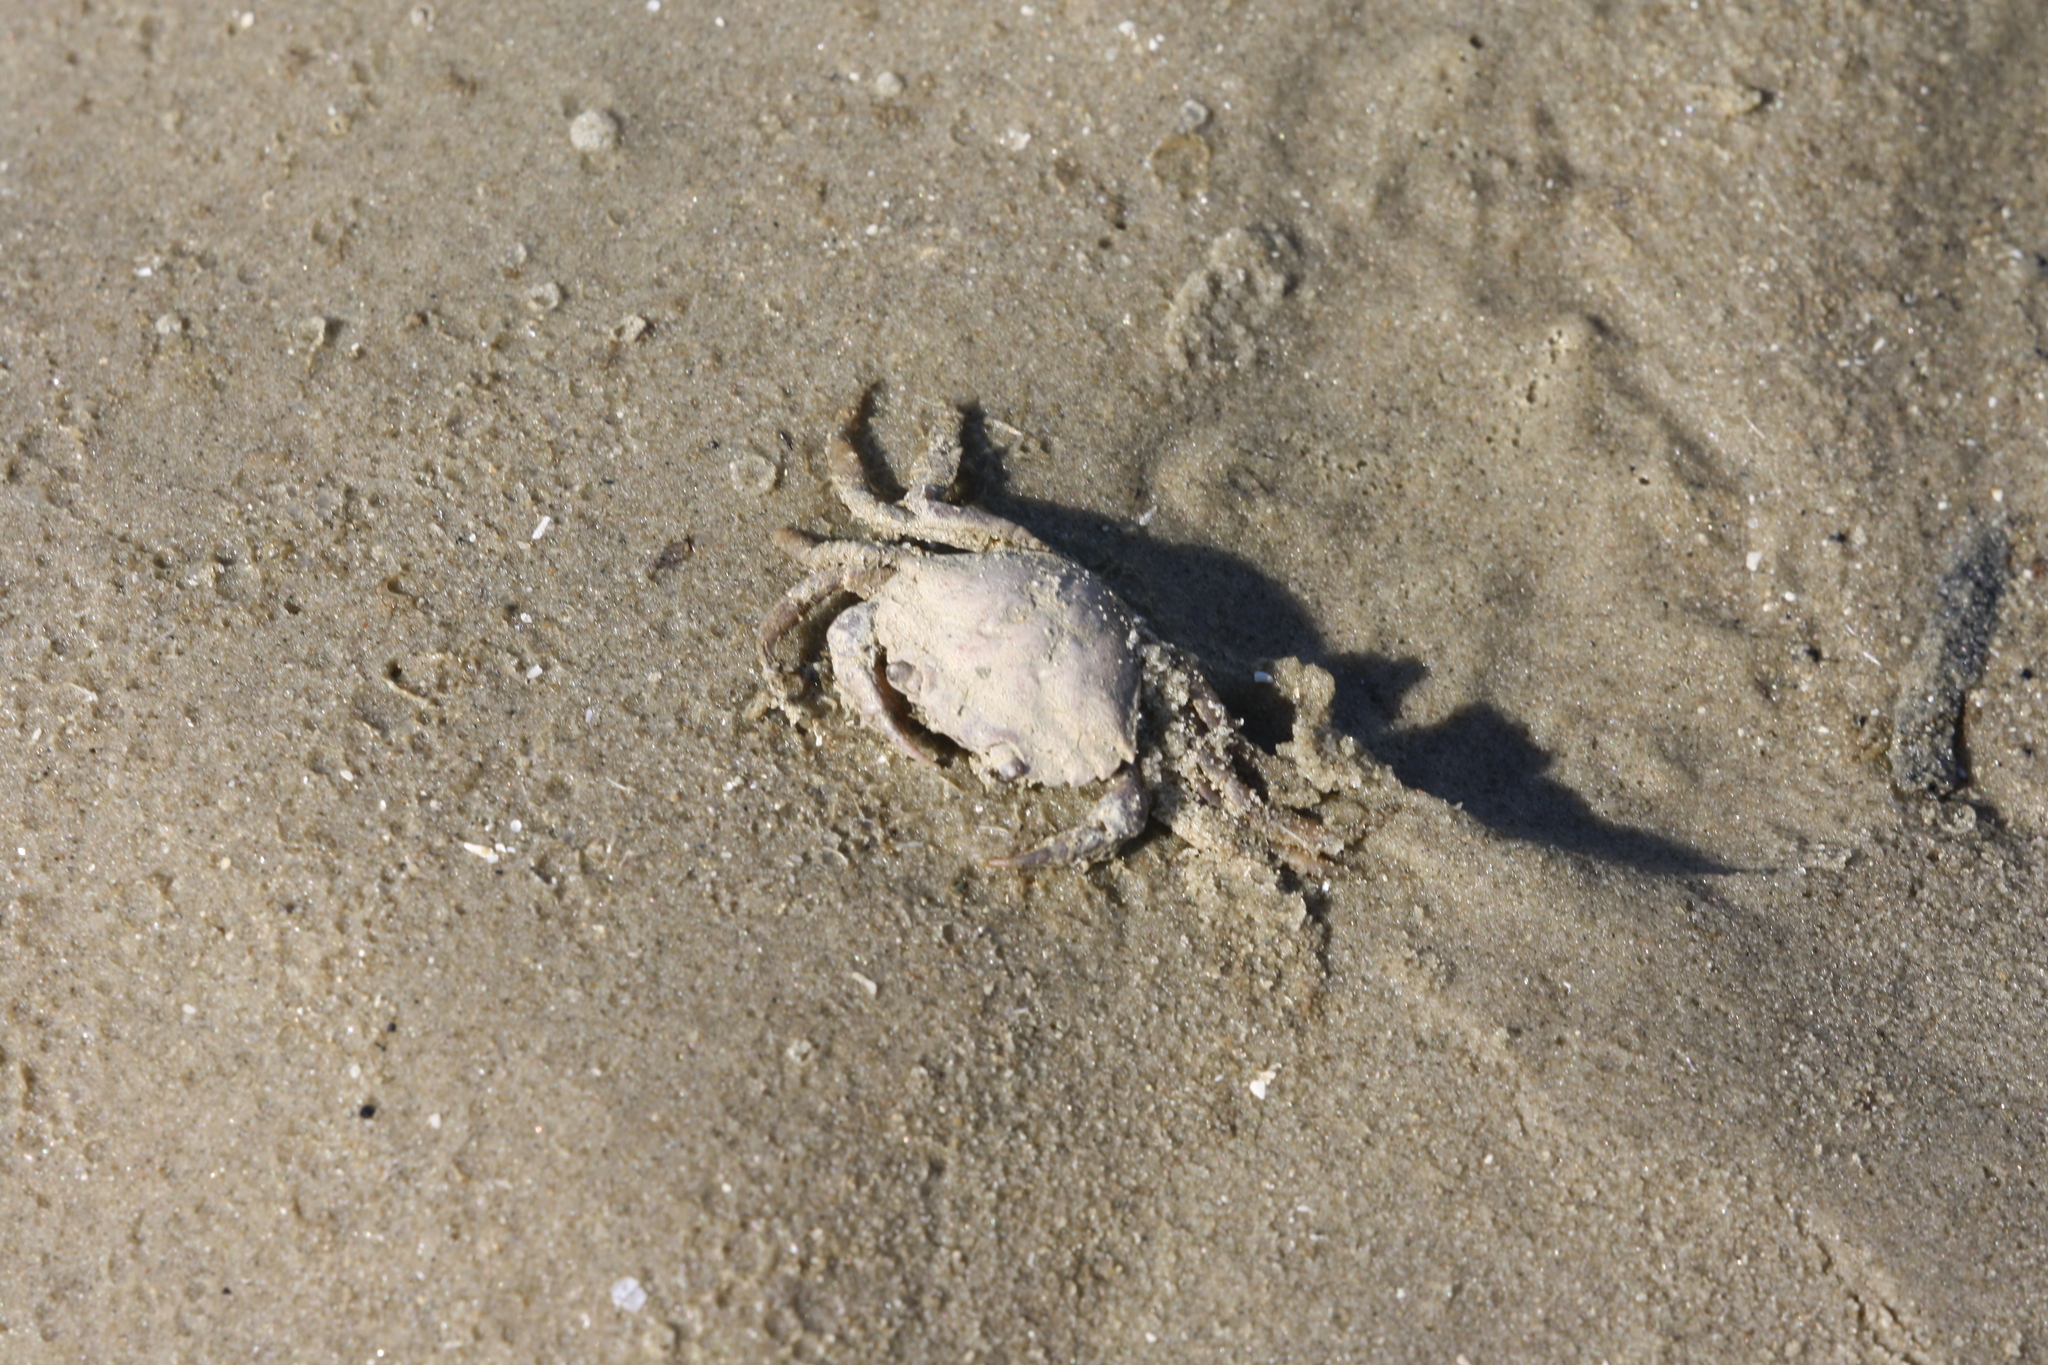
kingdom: Animalia
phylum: Arthropoda
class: Malacostraca
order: Decapoda
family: Carcinidae
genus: Carcinus
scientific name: Carcinus maenas
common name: European green crab
